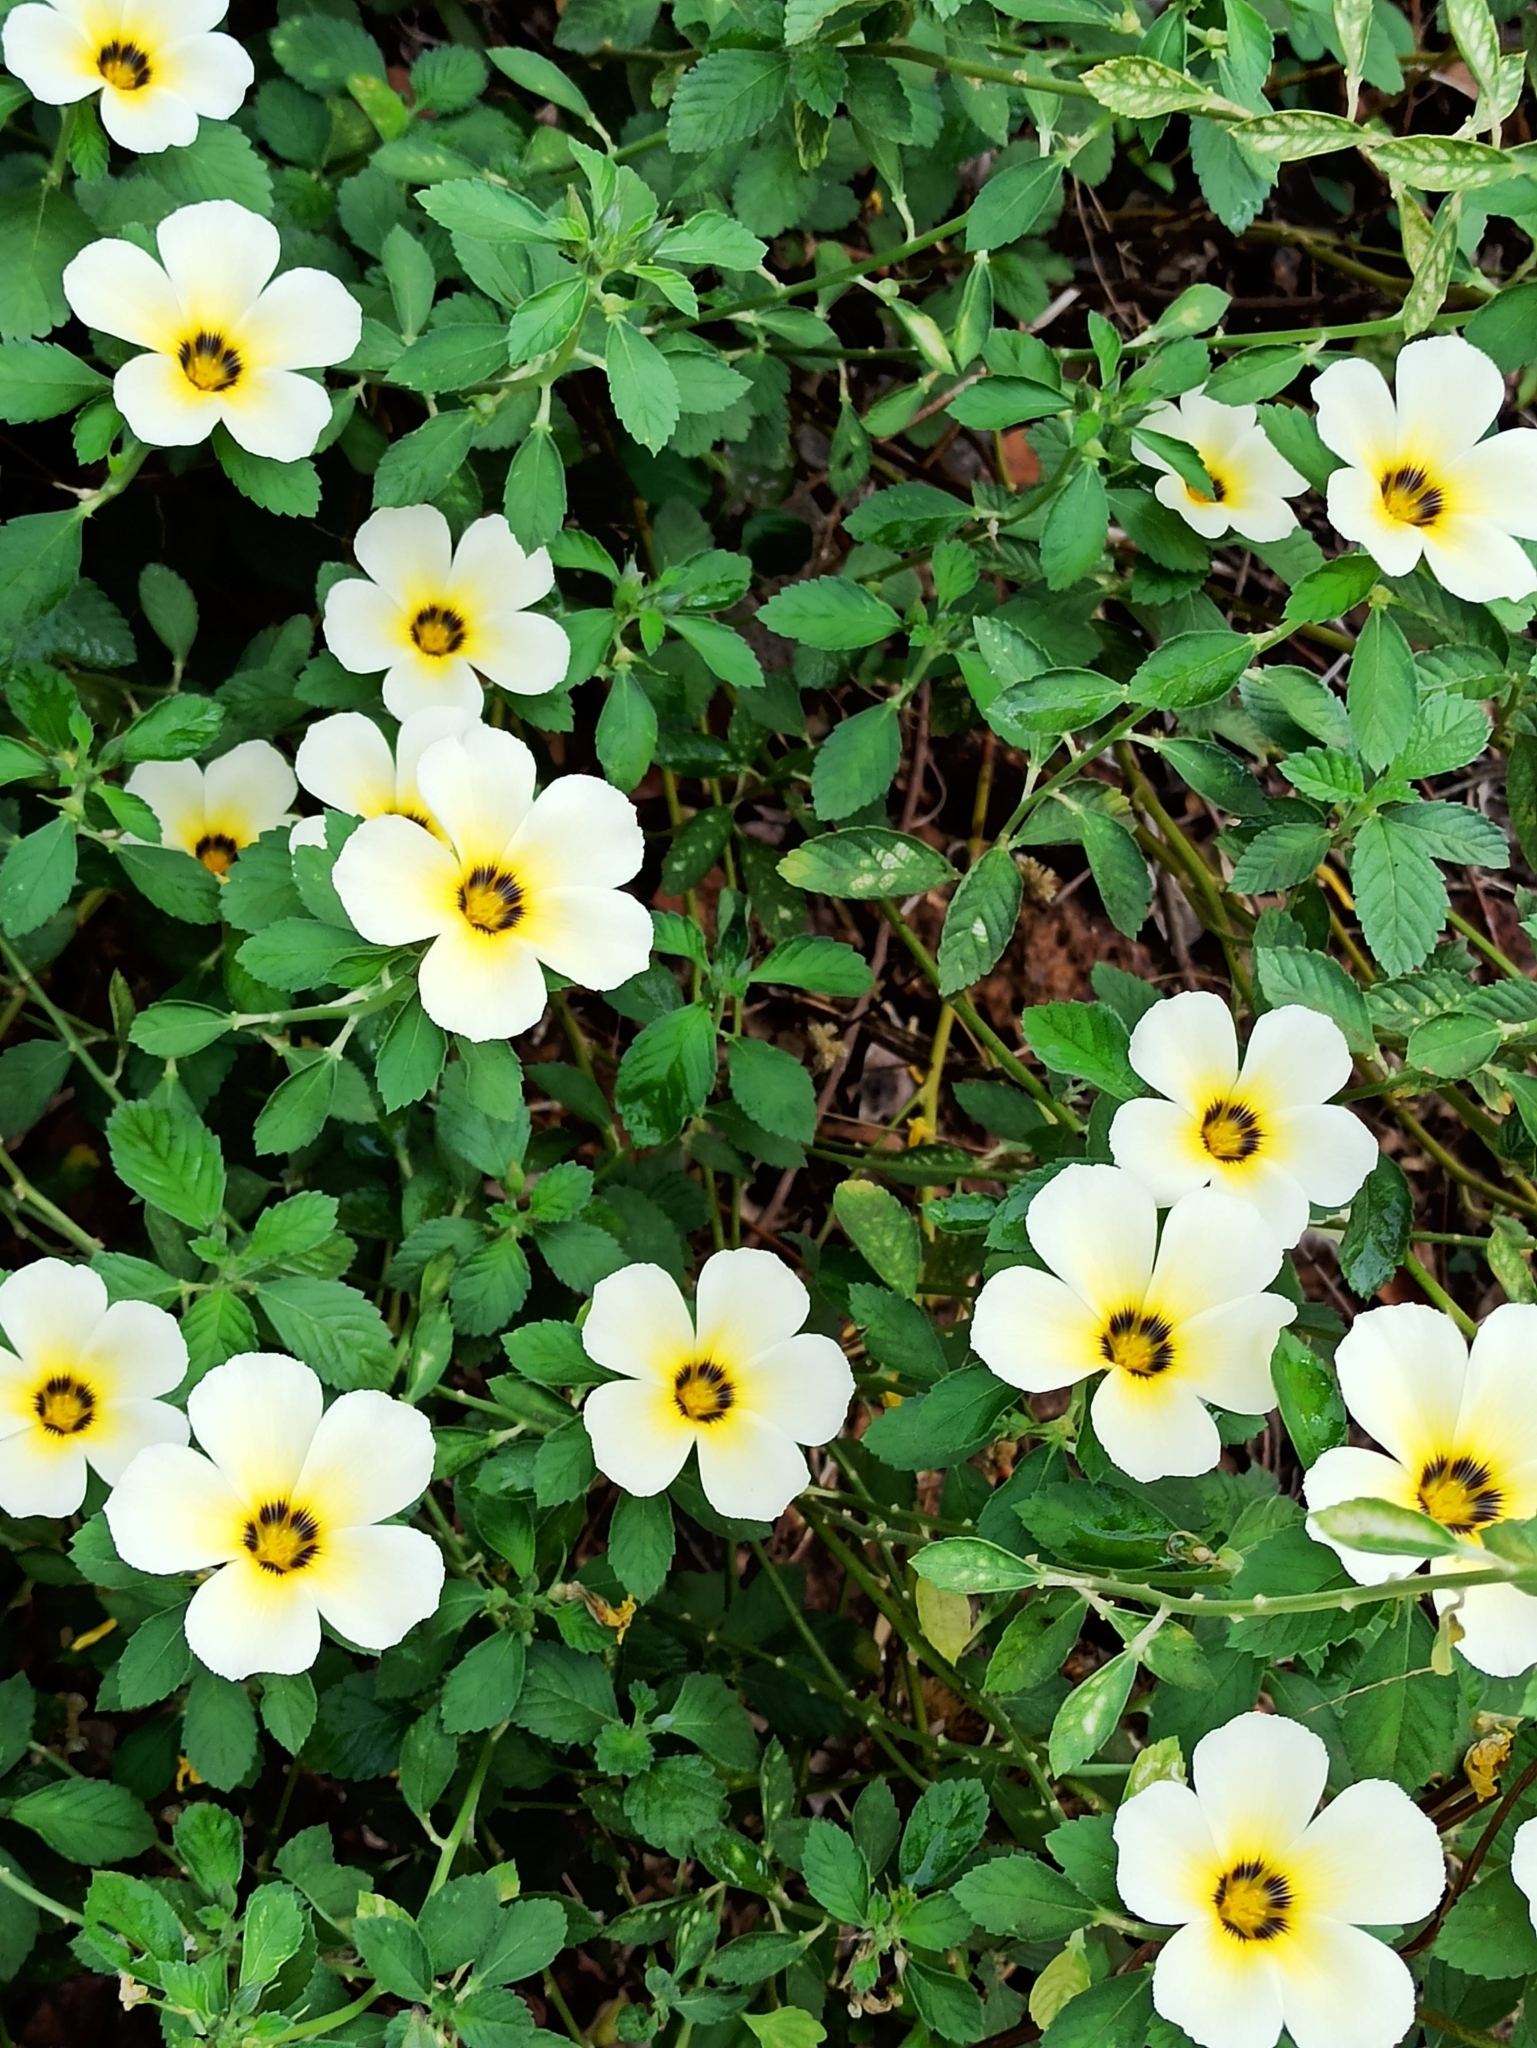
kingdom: Plantae
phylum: Tracheophyta
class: Magnoliopsida
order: Malpighiales
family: Turneraceae
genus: Turnera
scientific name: Turnera subulata
